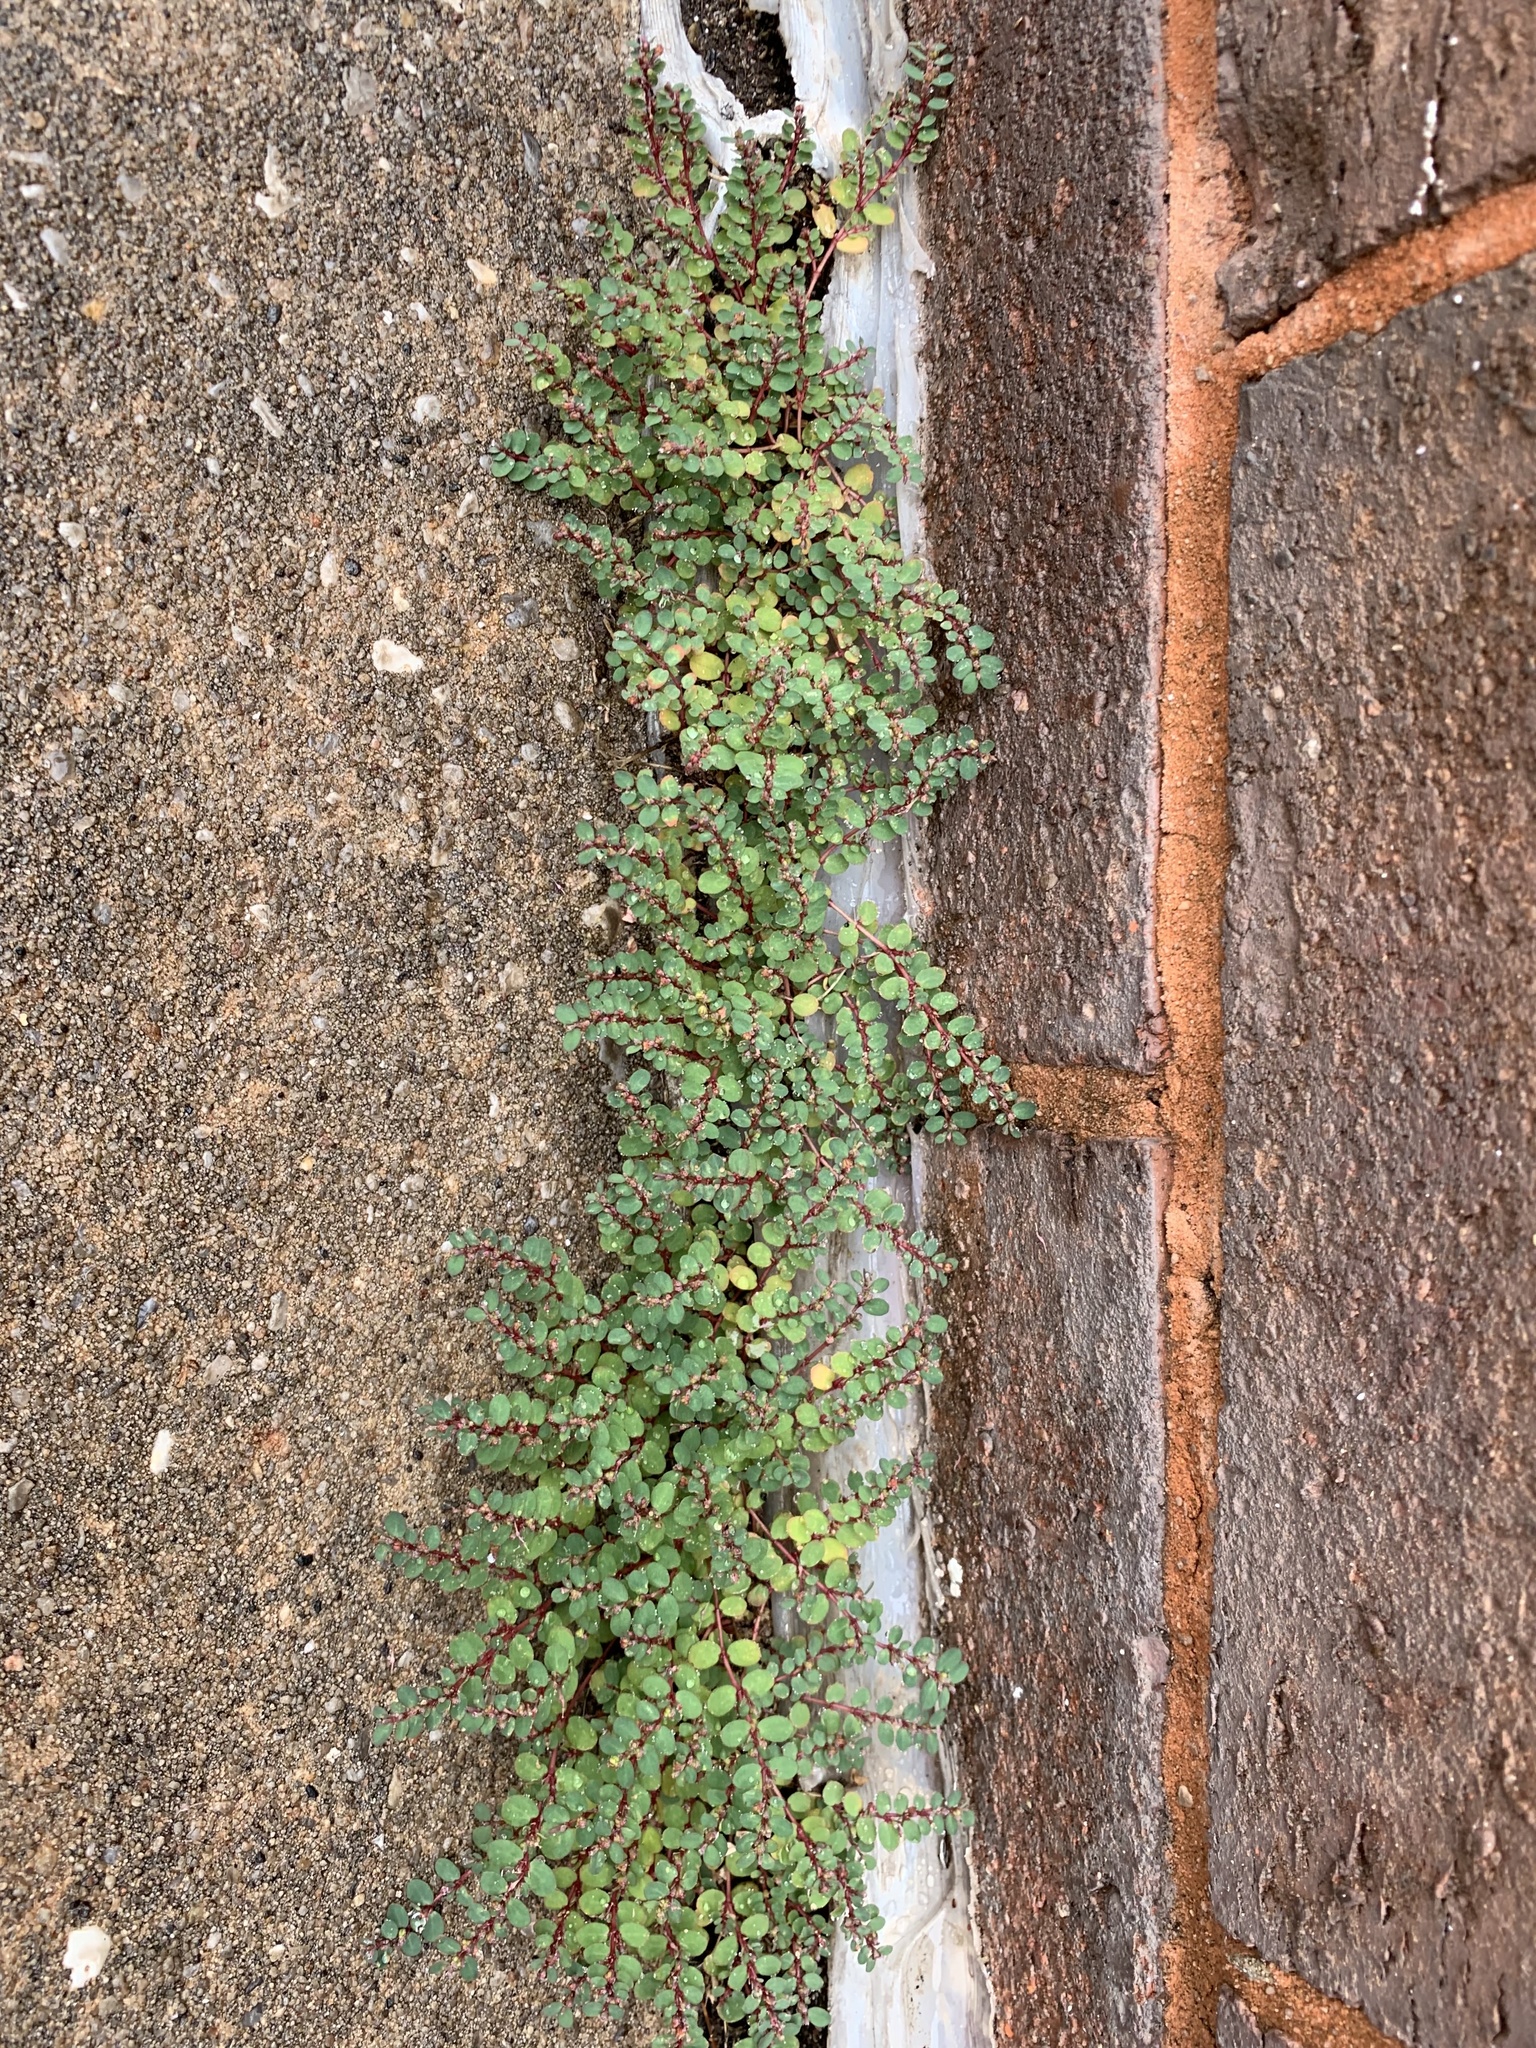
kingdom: Plantae
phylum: Tracheophyta
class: Magnoliopsida
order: Malpighiales
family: Euphorbiaceae
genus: Euphorbia
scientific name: Euphorbia prostrata
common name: Prostrate sandmat
